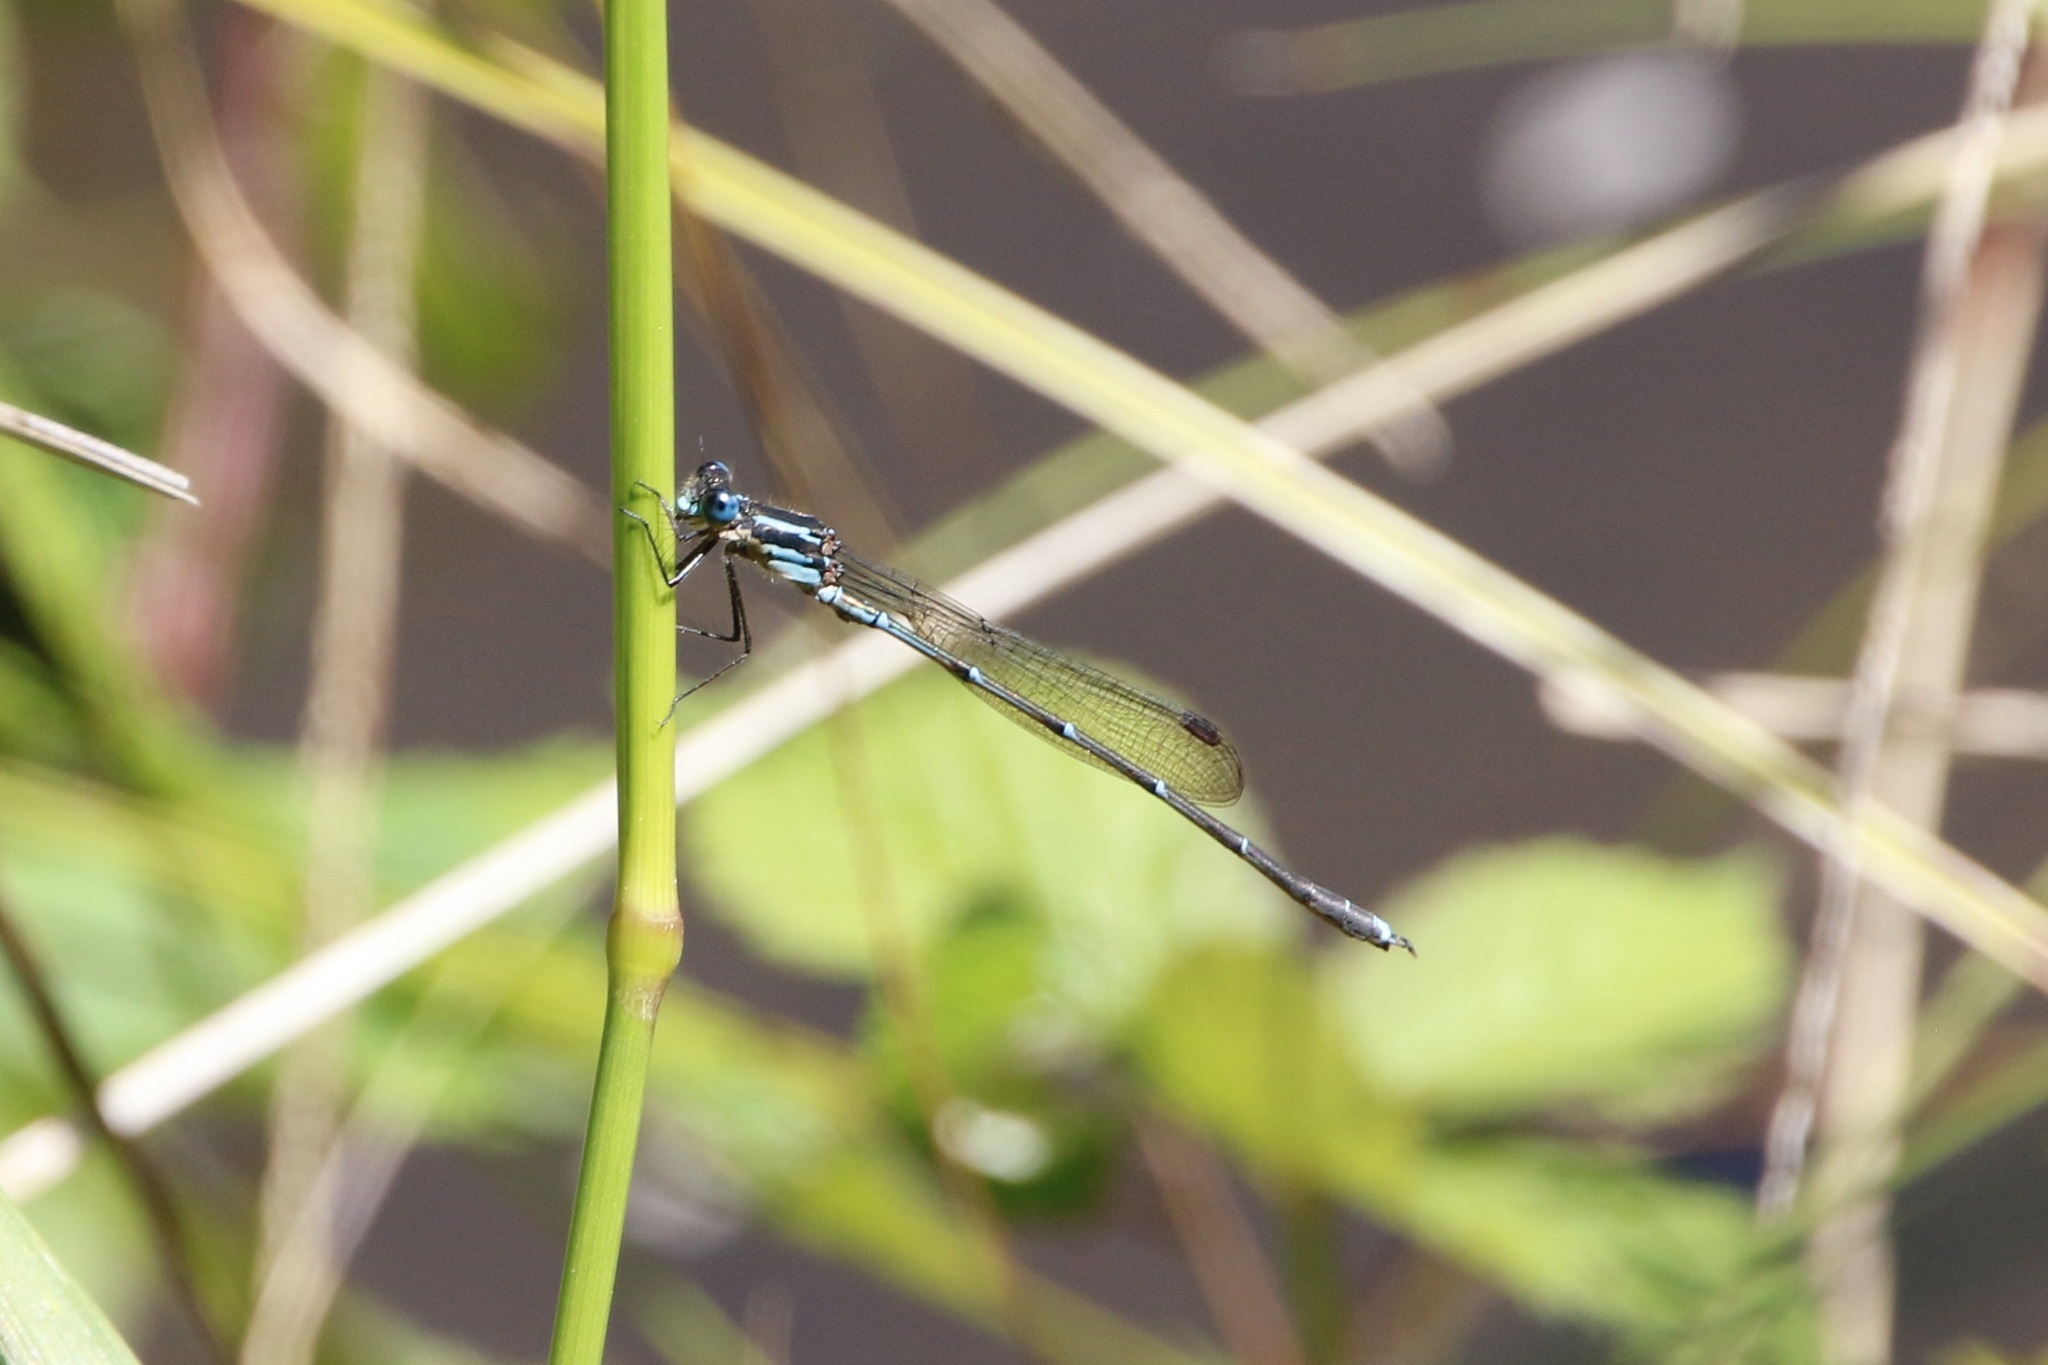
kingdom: Animalia
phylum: Arthropoda
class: Insecta
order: Odonata
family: Lestidae
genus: Austrolestes
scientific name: Austrolestes colensonis
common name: Blue damselfly
